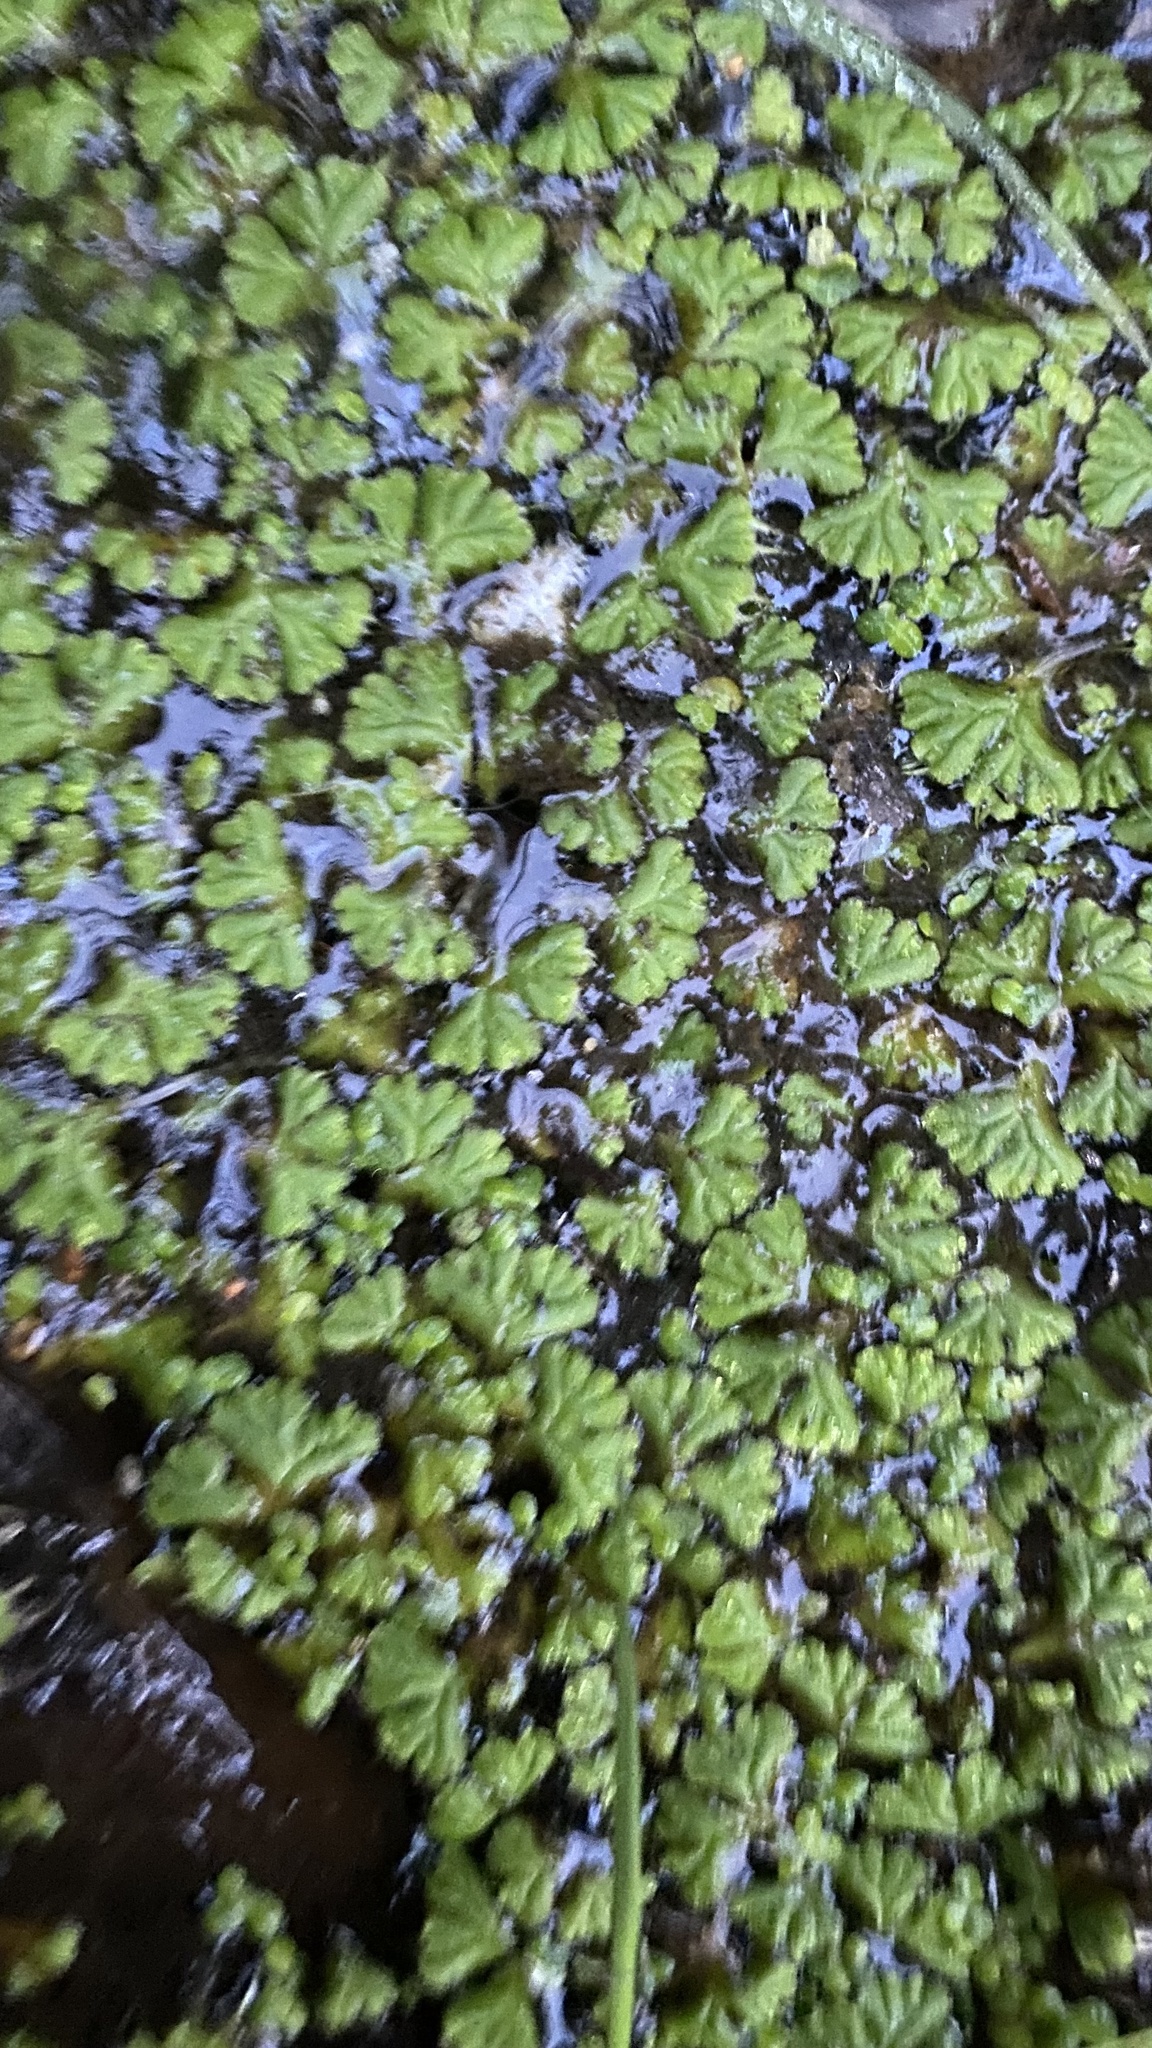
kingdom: Plantae
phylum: Marchantiophyta
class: Marchantiopsida
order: Marchantiales
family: Ricciaceae
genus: Ricciocarpos
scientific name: Ricciocarpos natans
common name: Purple-fringed liverwort
